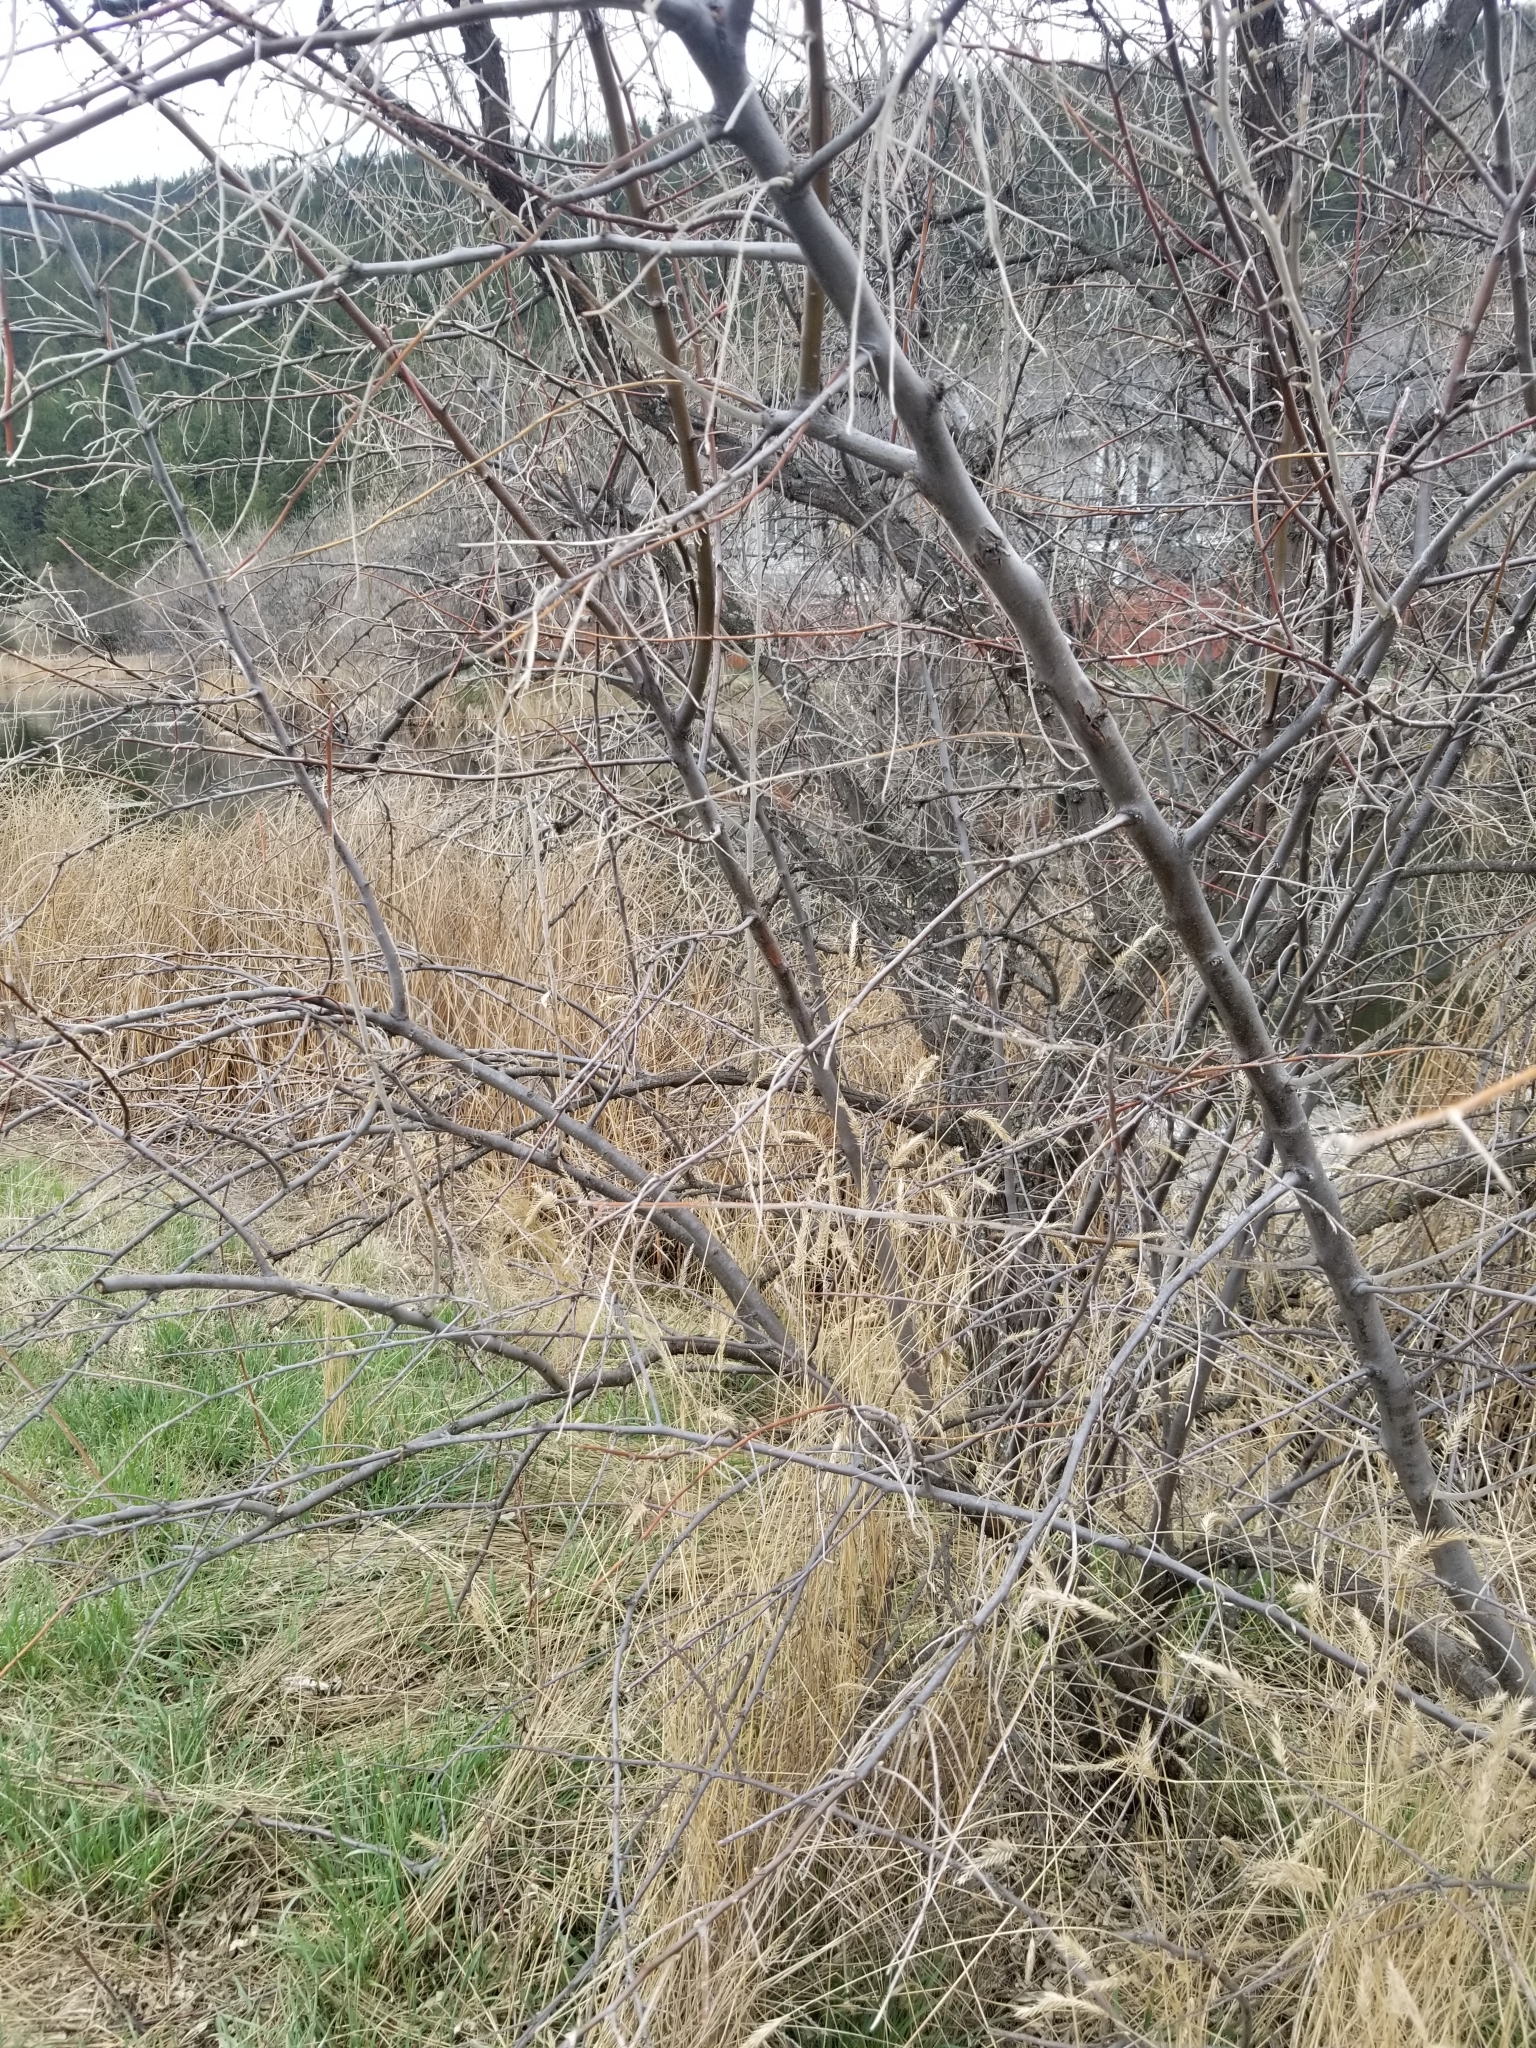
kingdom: Plantae
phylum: Tracheophyta
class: Magnoliopsida
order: Rosales
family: Elaeagnaceae
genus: Elaeagnus
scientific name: Elaeagnus angustifolia
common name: Russian olive
